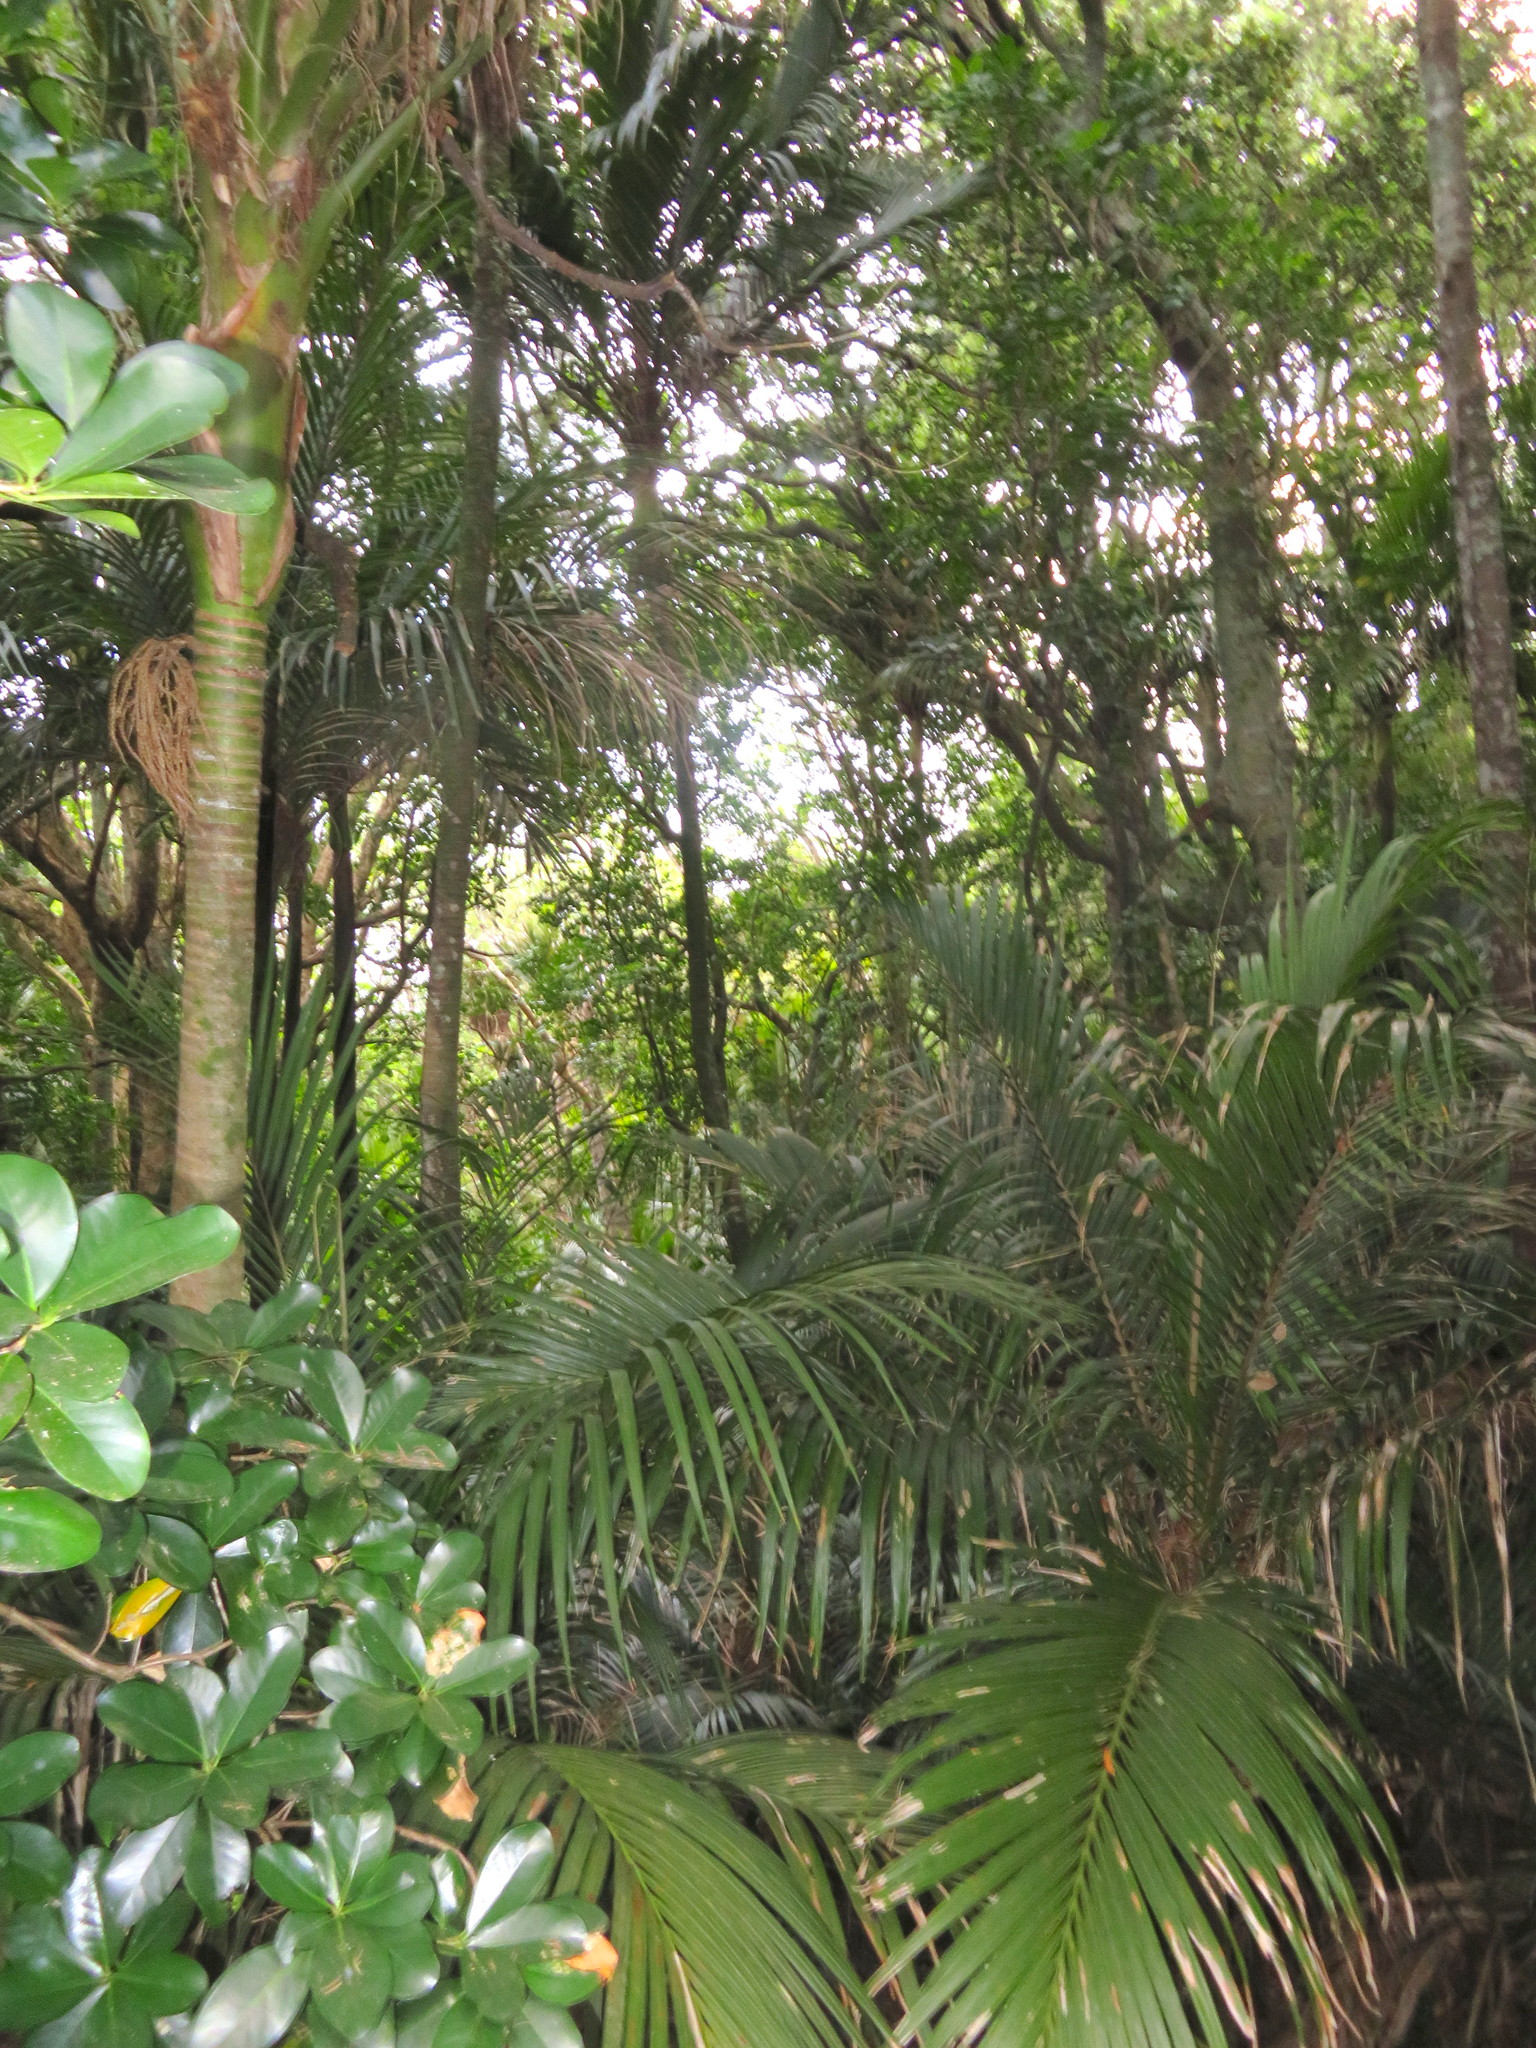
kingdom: Plantae
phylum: Tracheophyta
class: Magnoliopsida
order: Cucurbitales
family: Corynocarpaceae
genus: Corynocarpus
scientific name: Corynocarpus laevigatus
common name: New zealand laurel
